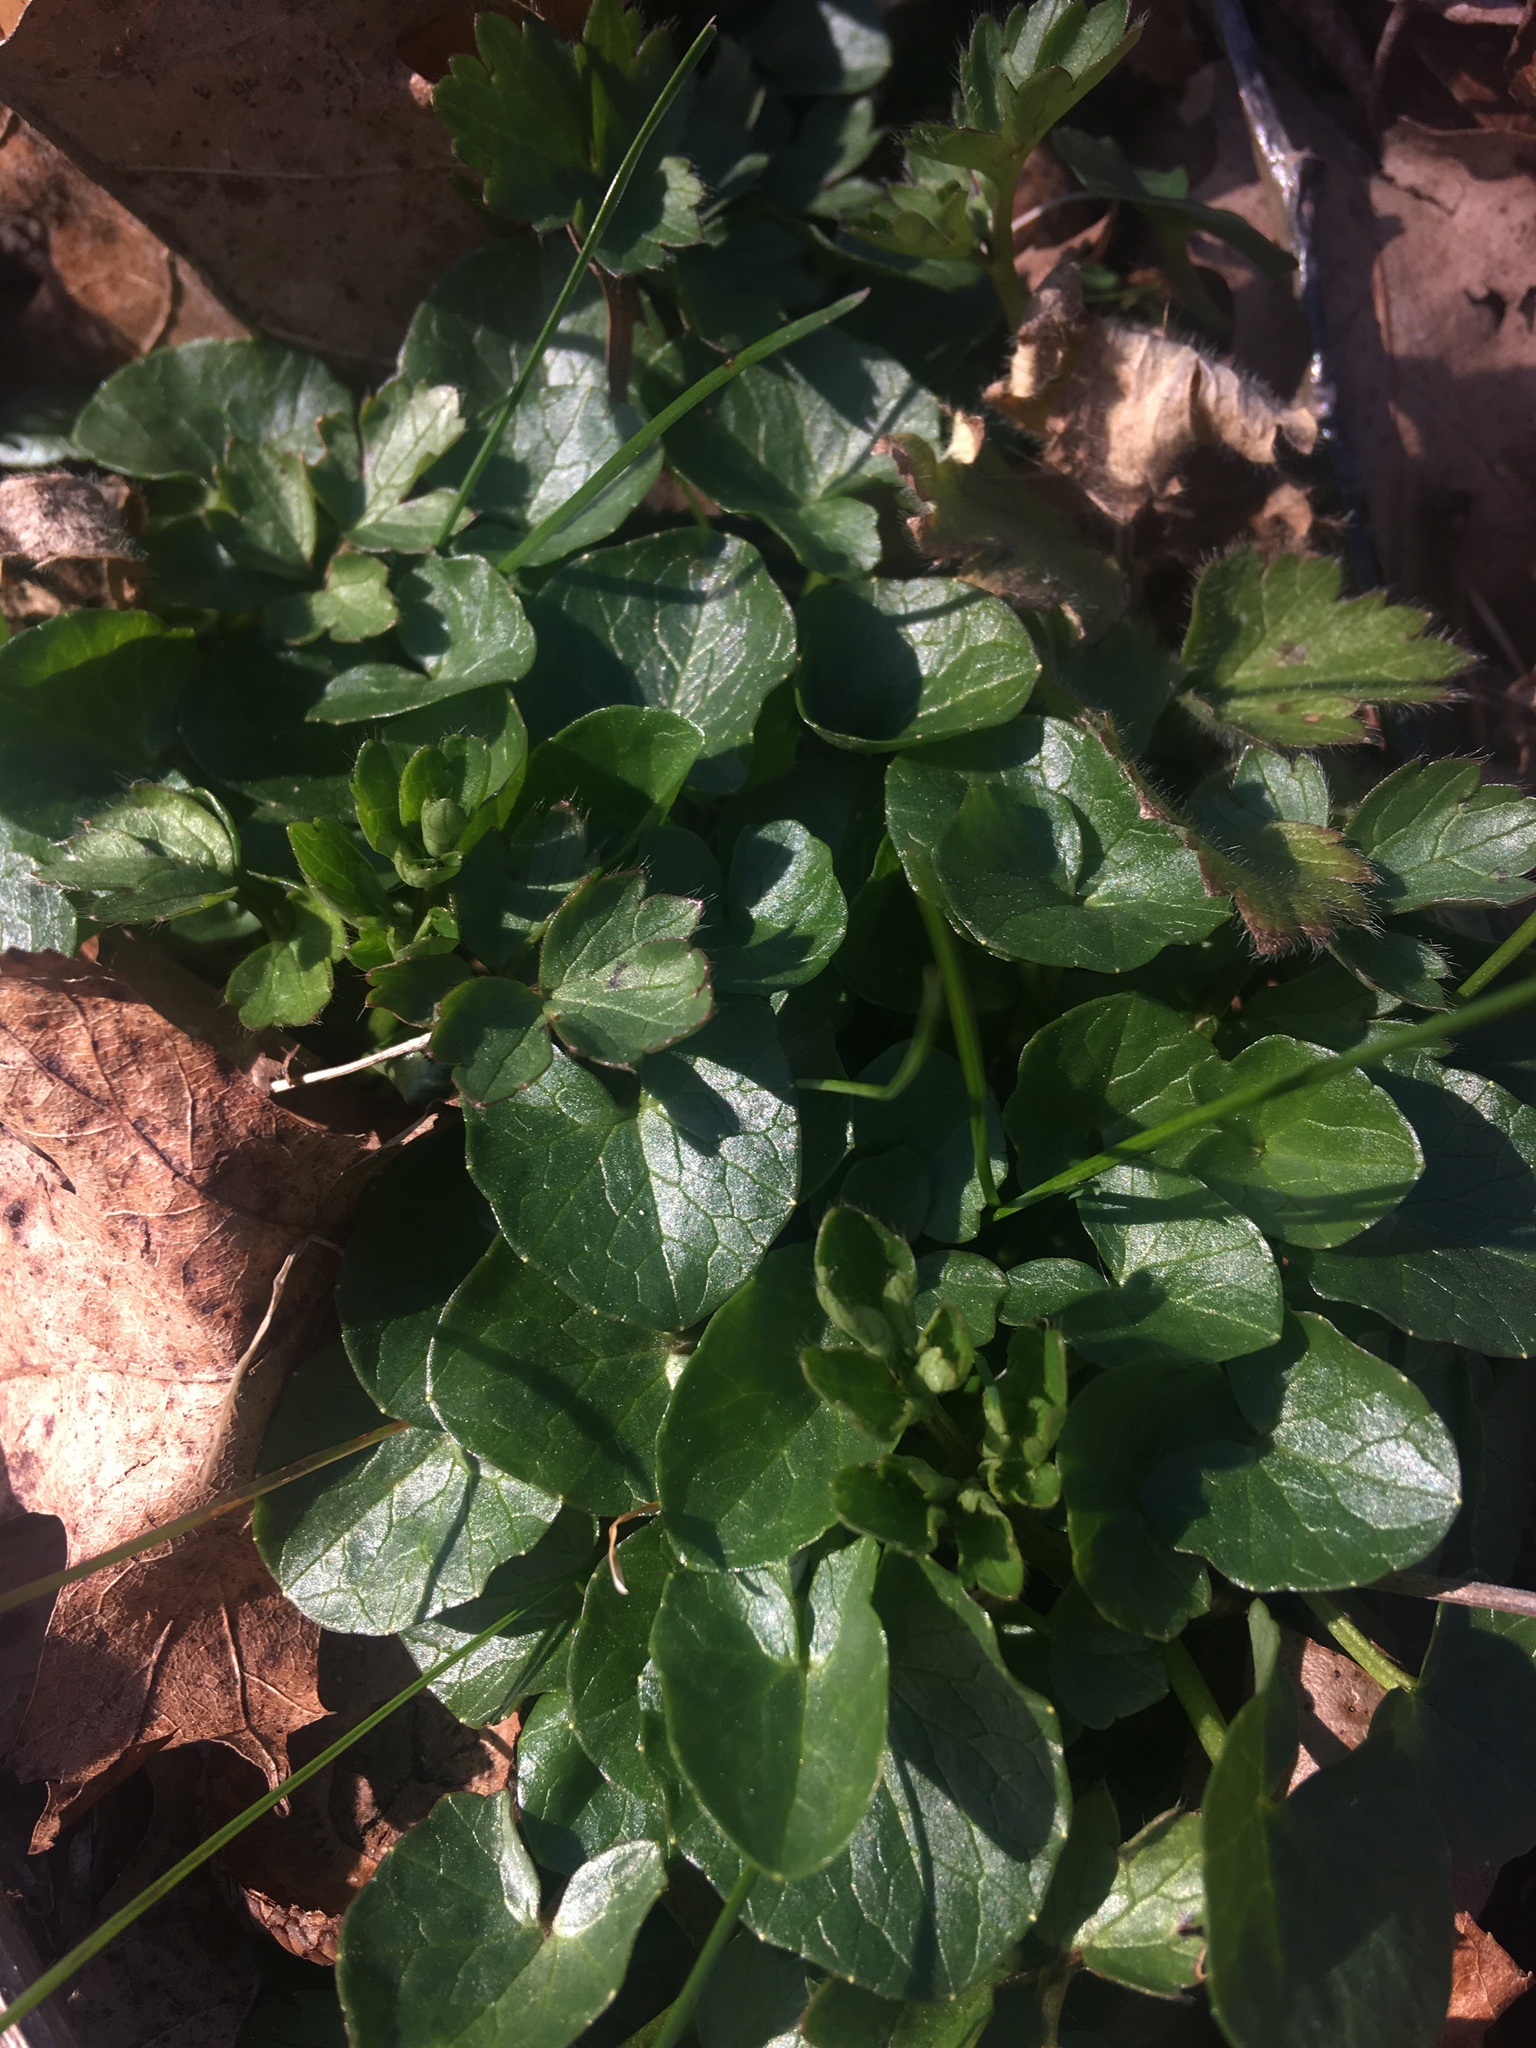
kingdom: Plantae
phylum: Tracheophyta
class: Magnoliopsida
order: Ranunculales
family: Ranunculaceae
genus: Ficaria
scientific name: Ficaria verna
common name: Lesser celandine
